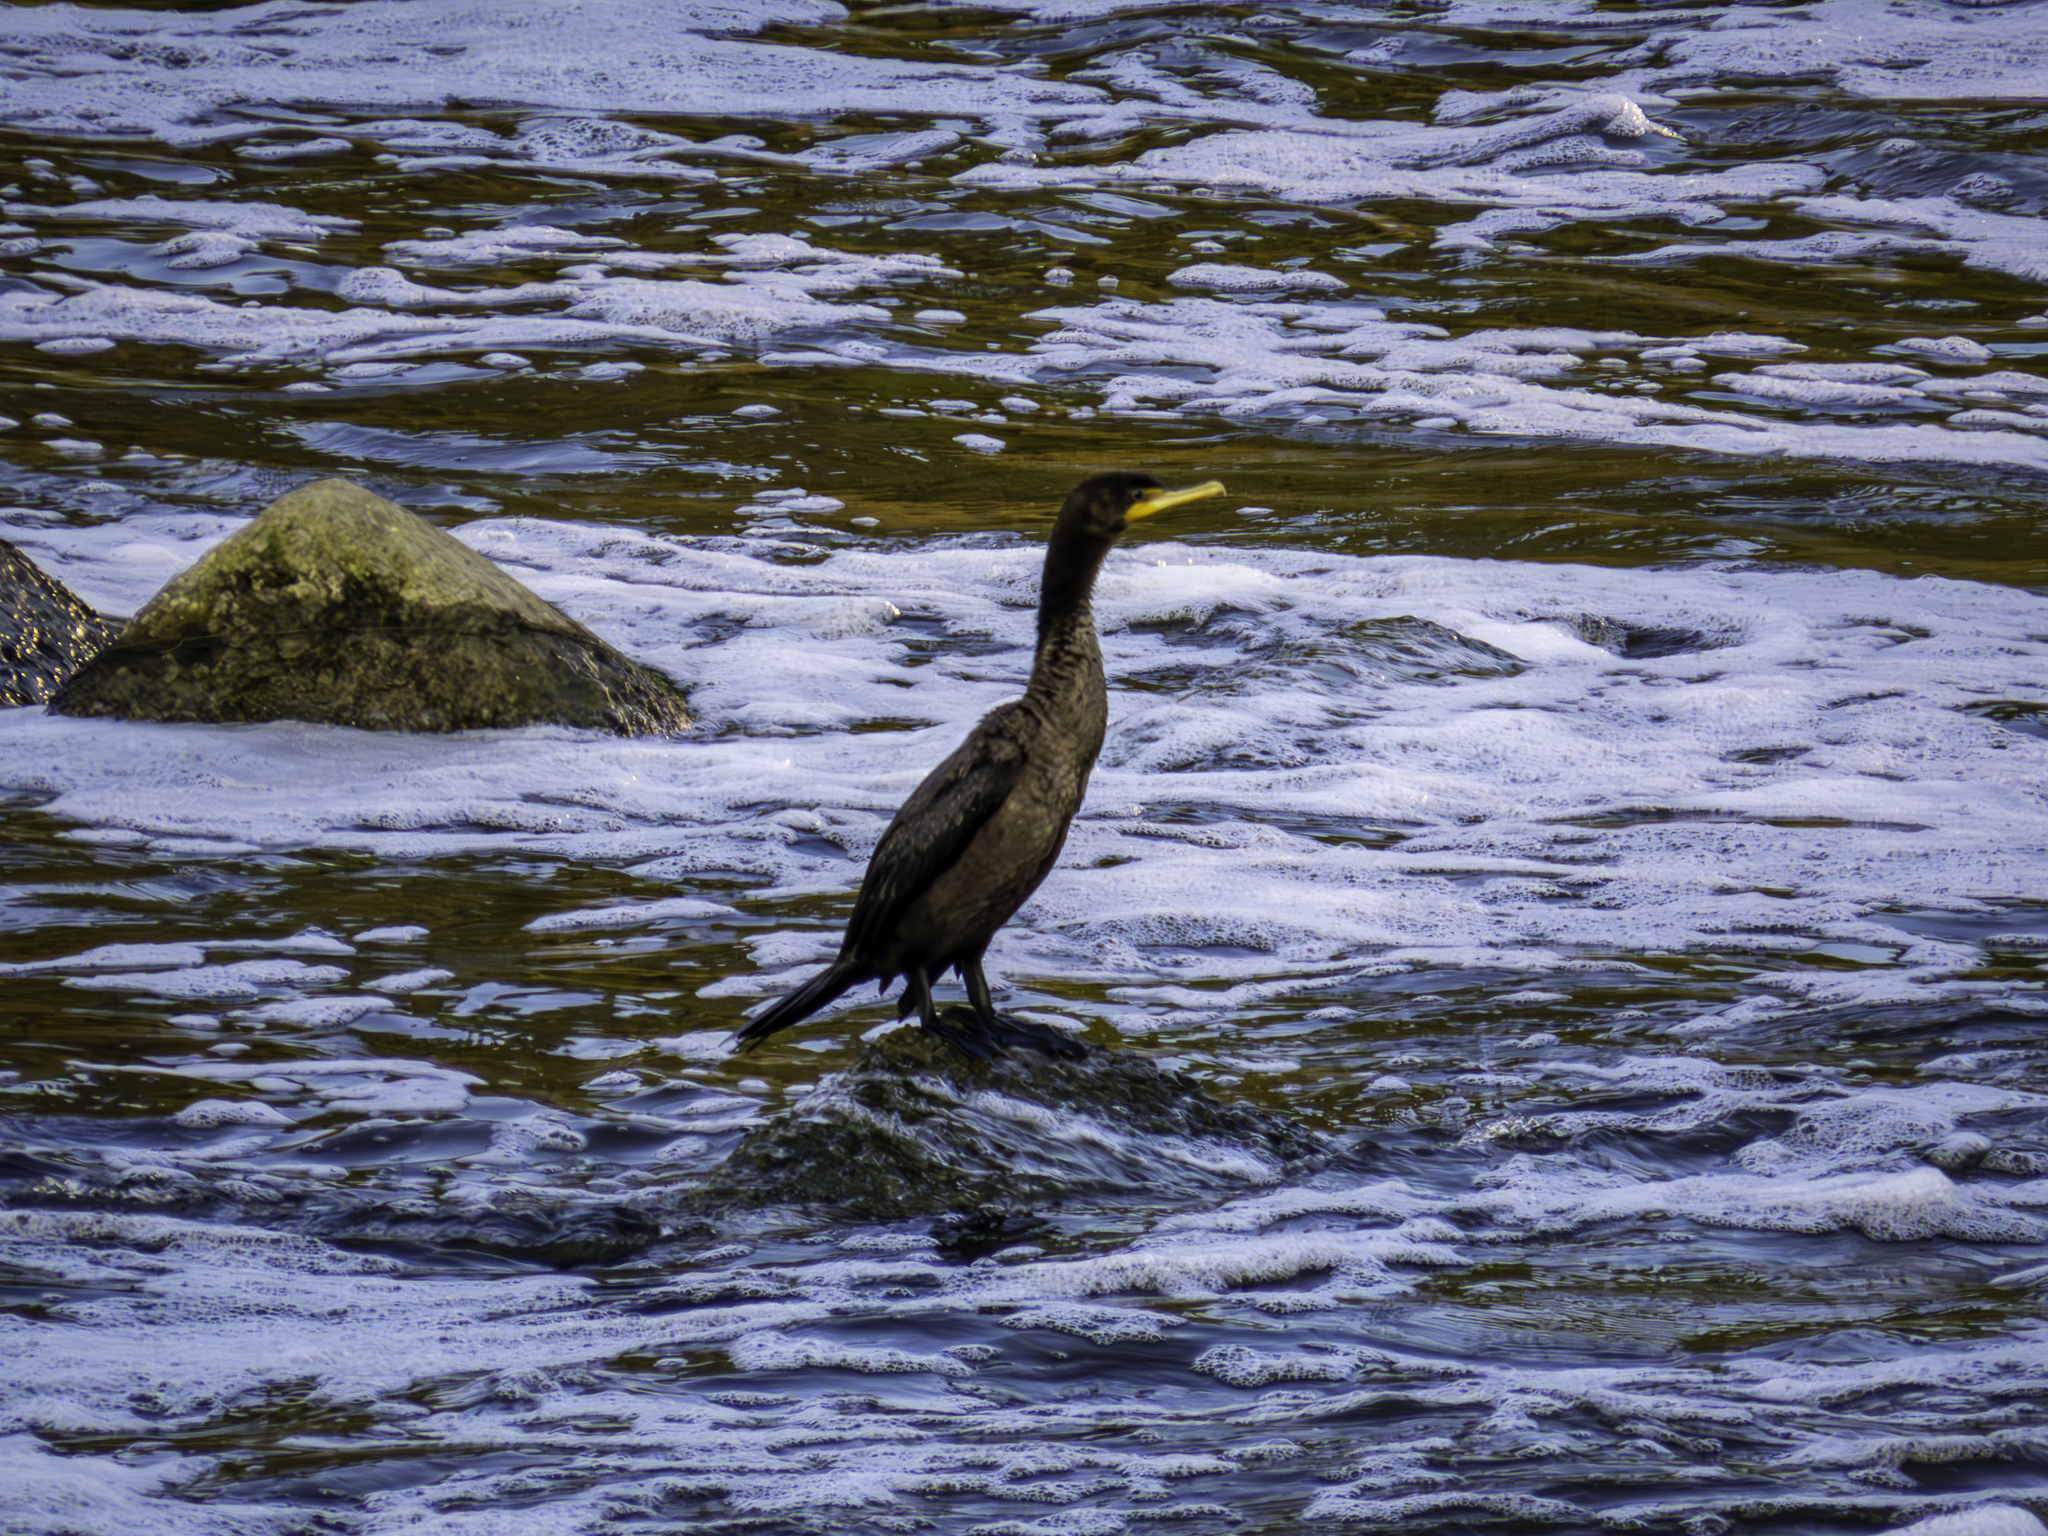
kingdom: Animalia
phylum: Chordata
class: Aves
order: Suliformes
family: Phalacrocoracidae
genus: Phalacrocorax
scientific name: Phalacrocorax auritus
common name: Double-crested cormorant
